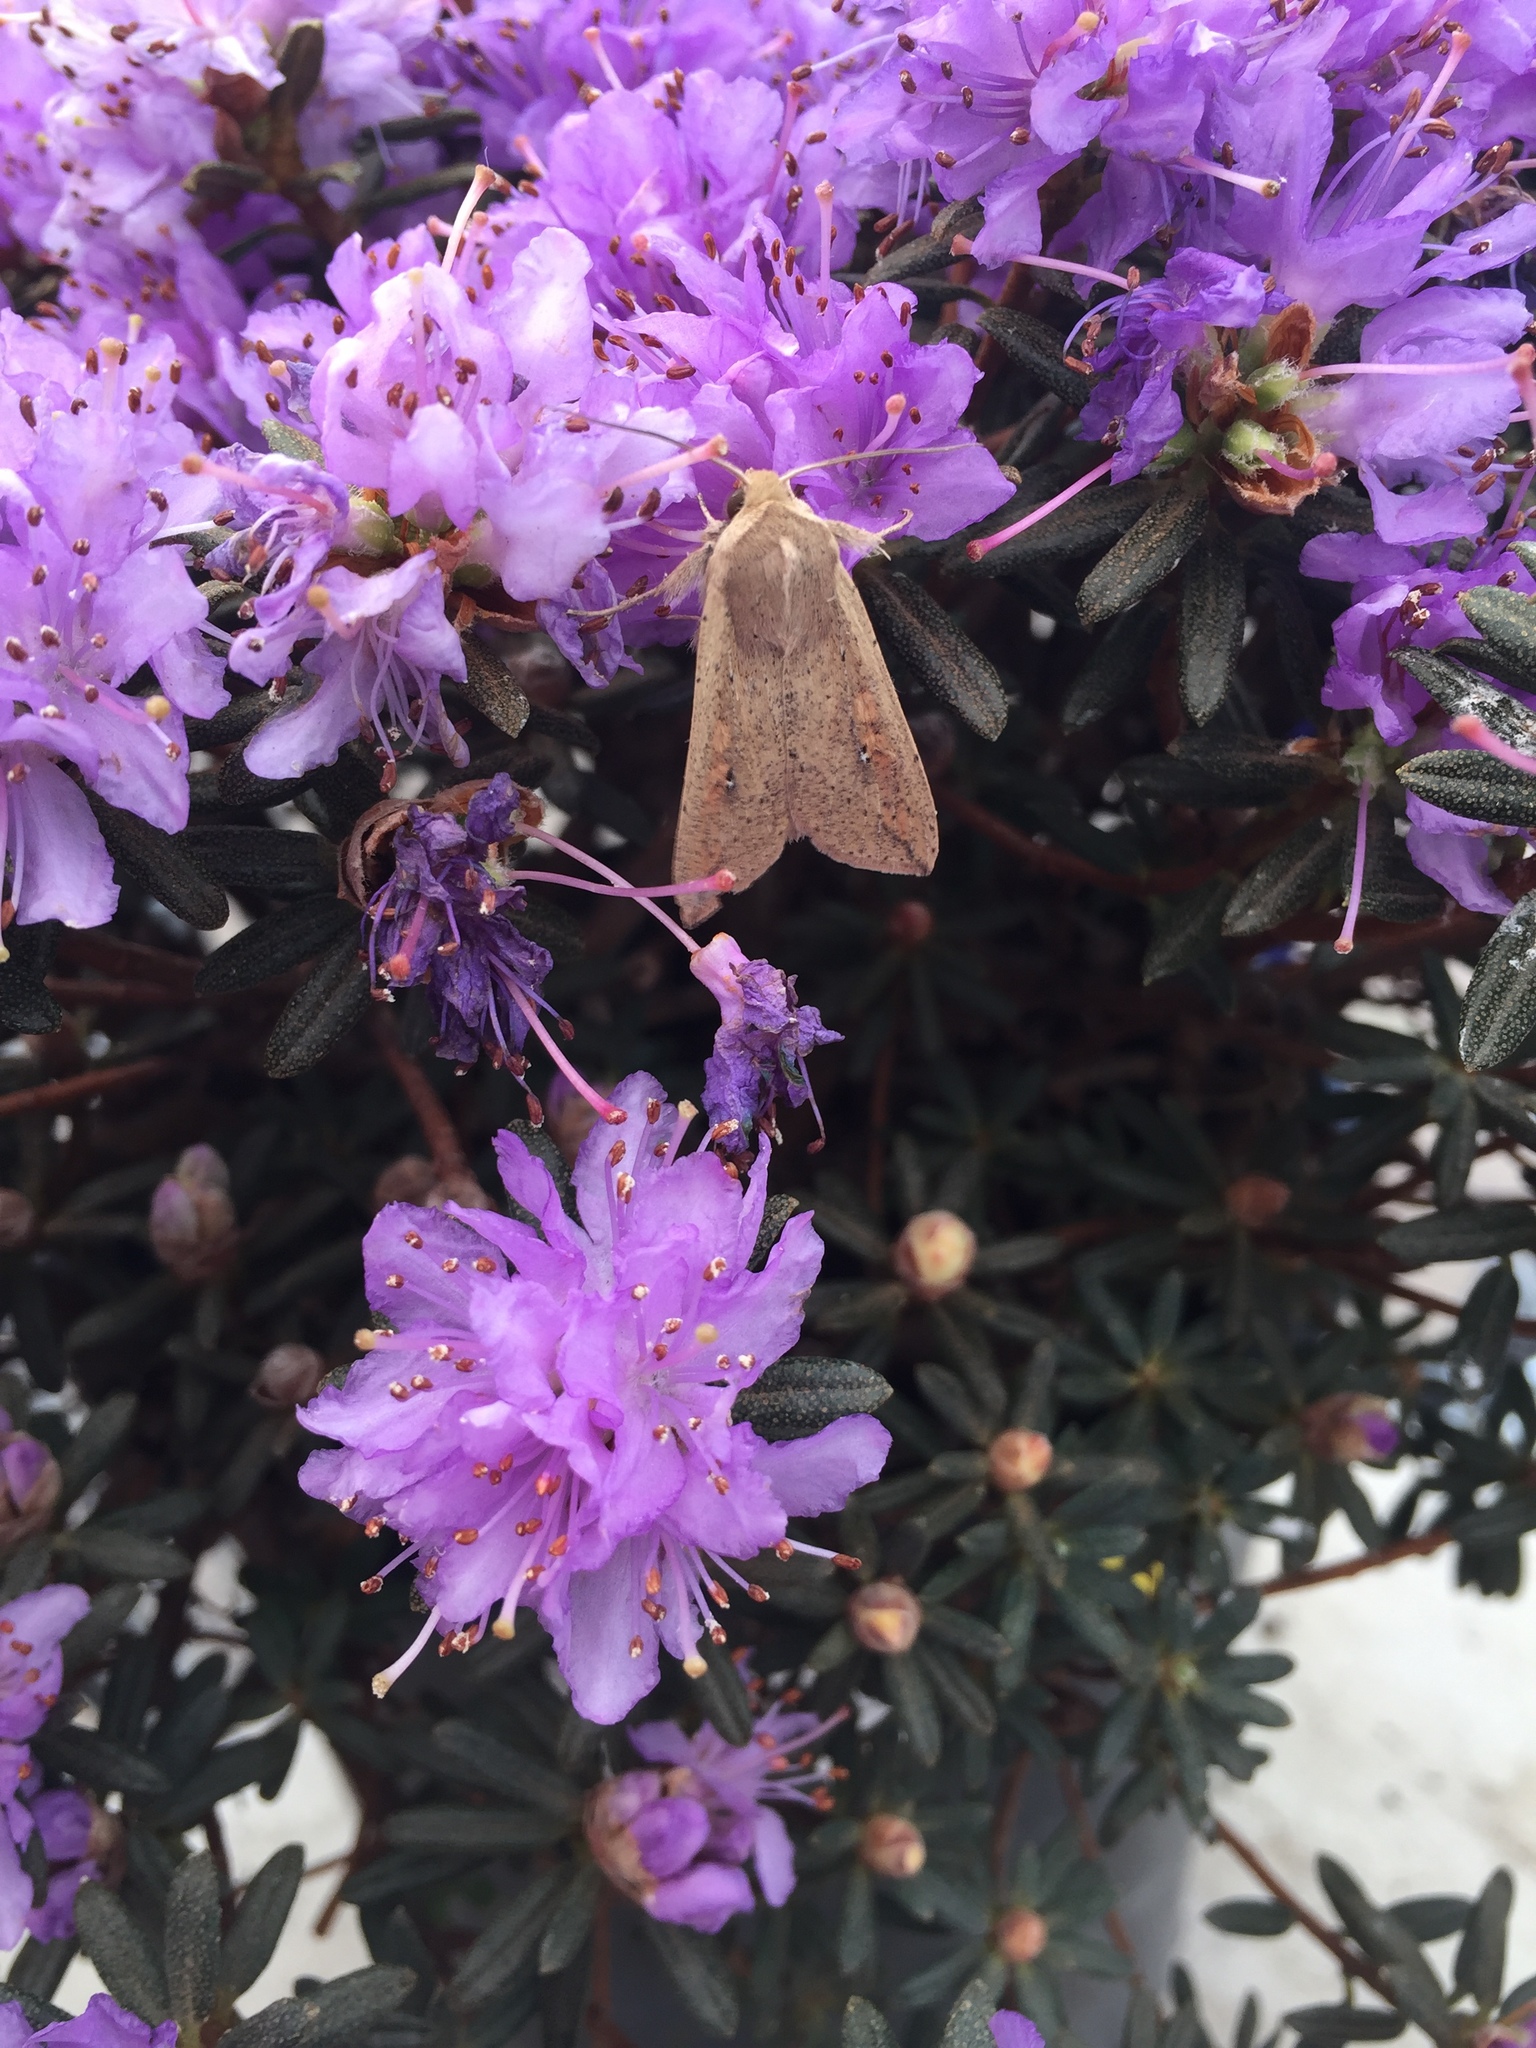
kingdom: Animalia
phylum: Arthropoda
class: Insecta
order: Lepidoptera
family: Noctuidae
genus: Mythimna
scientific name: Mythimna unipuncta
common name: White-speck
